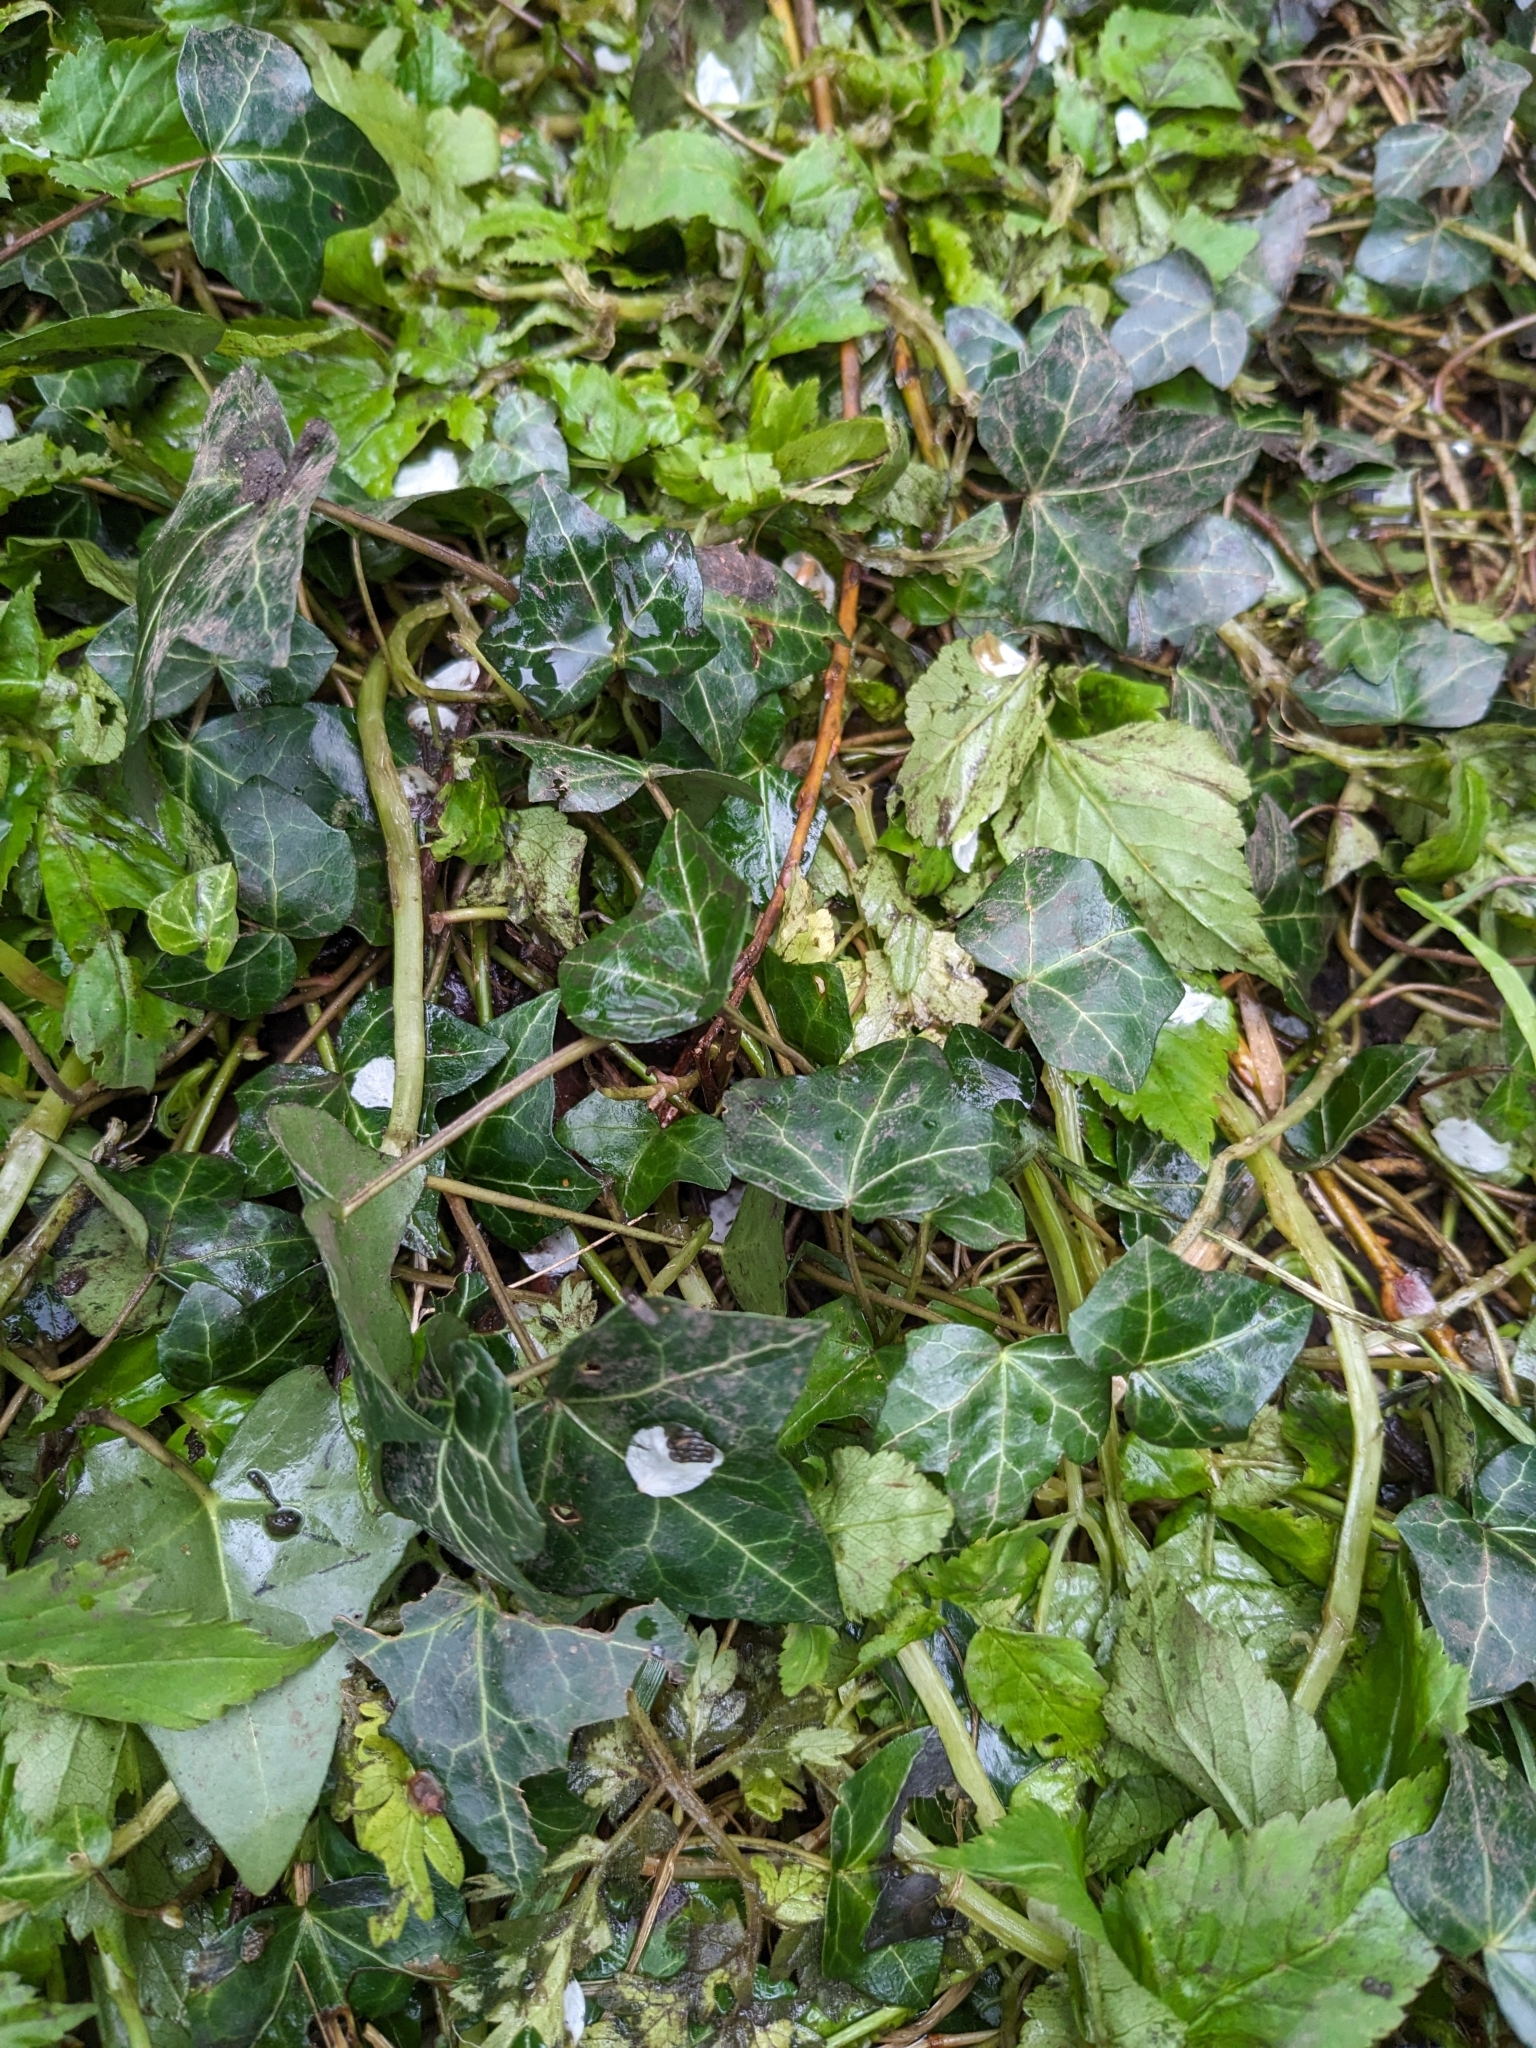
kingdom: Plantae
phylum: Tracheophyta
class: Magnoliopsida
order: Apiales
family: Araliaceae
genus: Hedera
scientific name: Hedera helix
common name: Ivy
